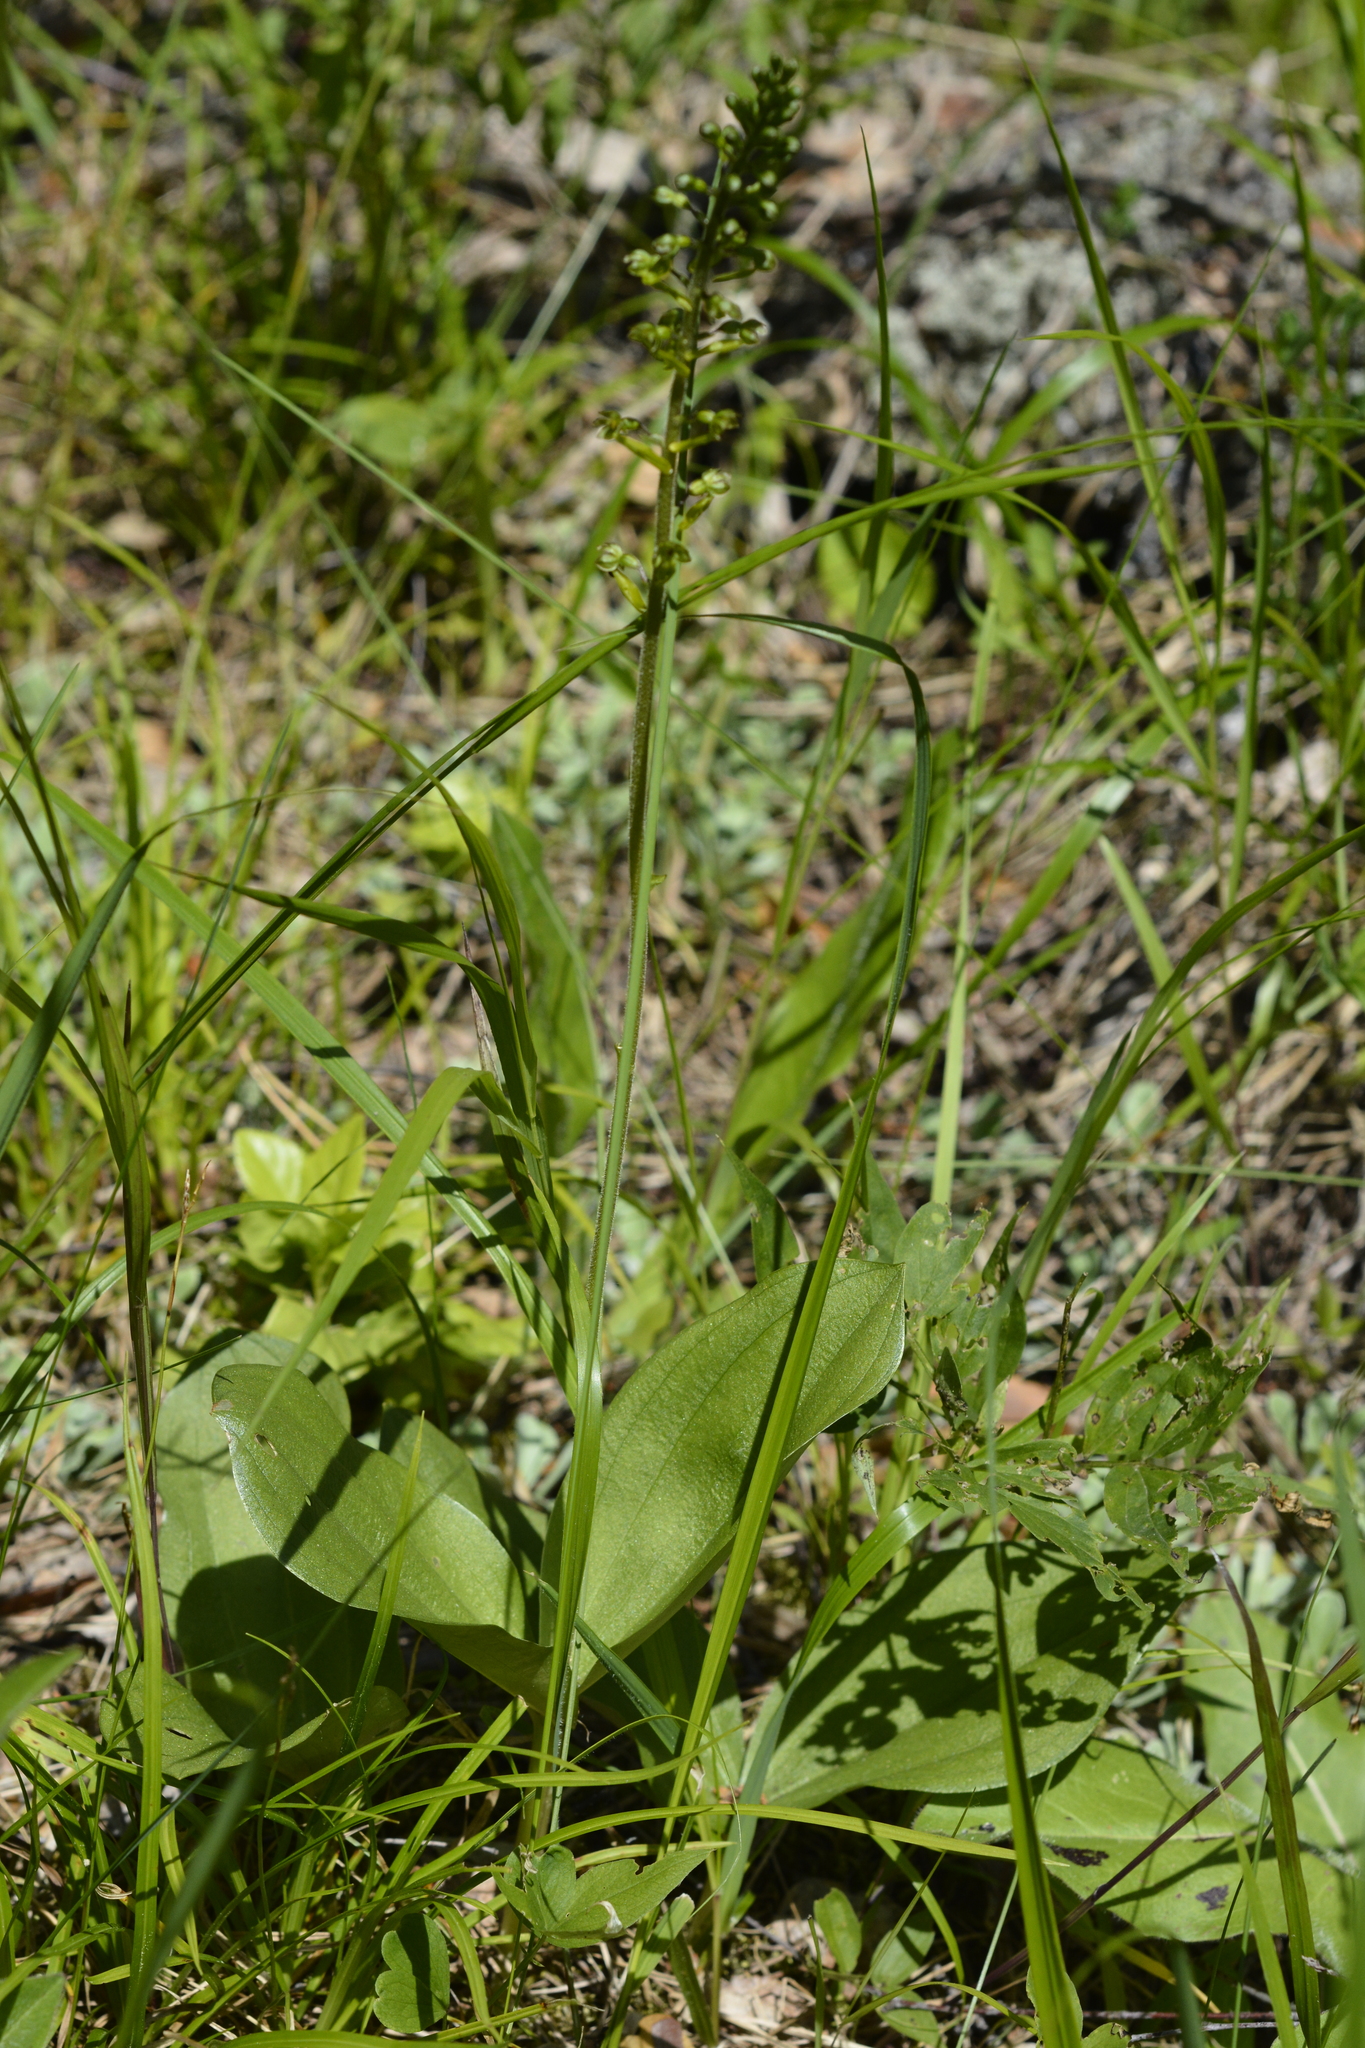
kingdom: Plantae
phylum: Tracheophyta
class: Liliopsida
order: Asparagales
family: Orchidaceae
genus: Neottia
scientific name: Neottia ovata
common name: Common twayblade
